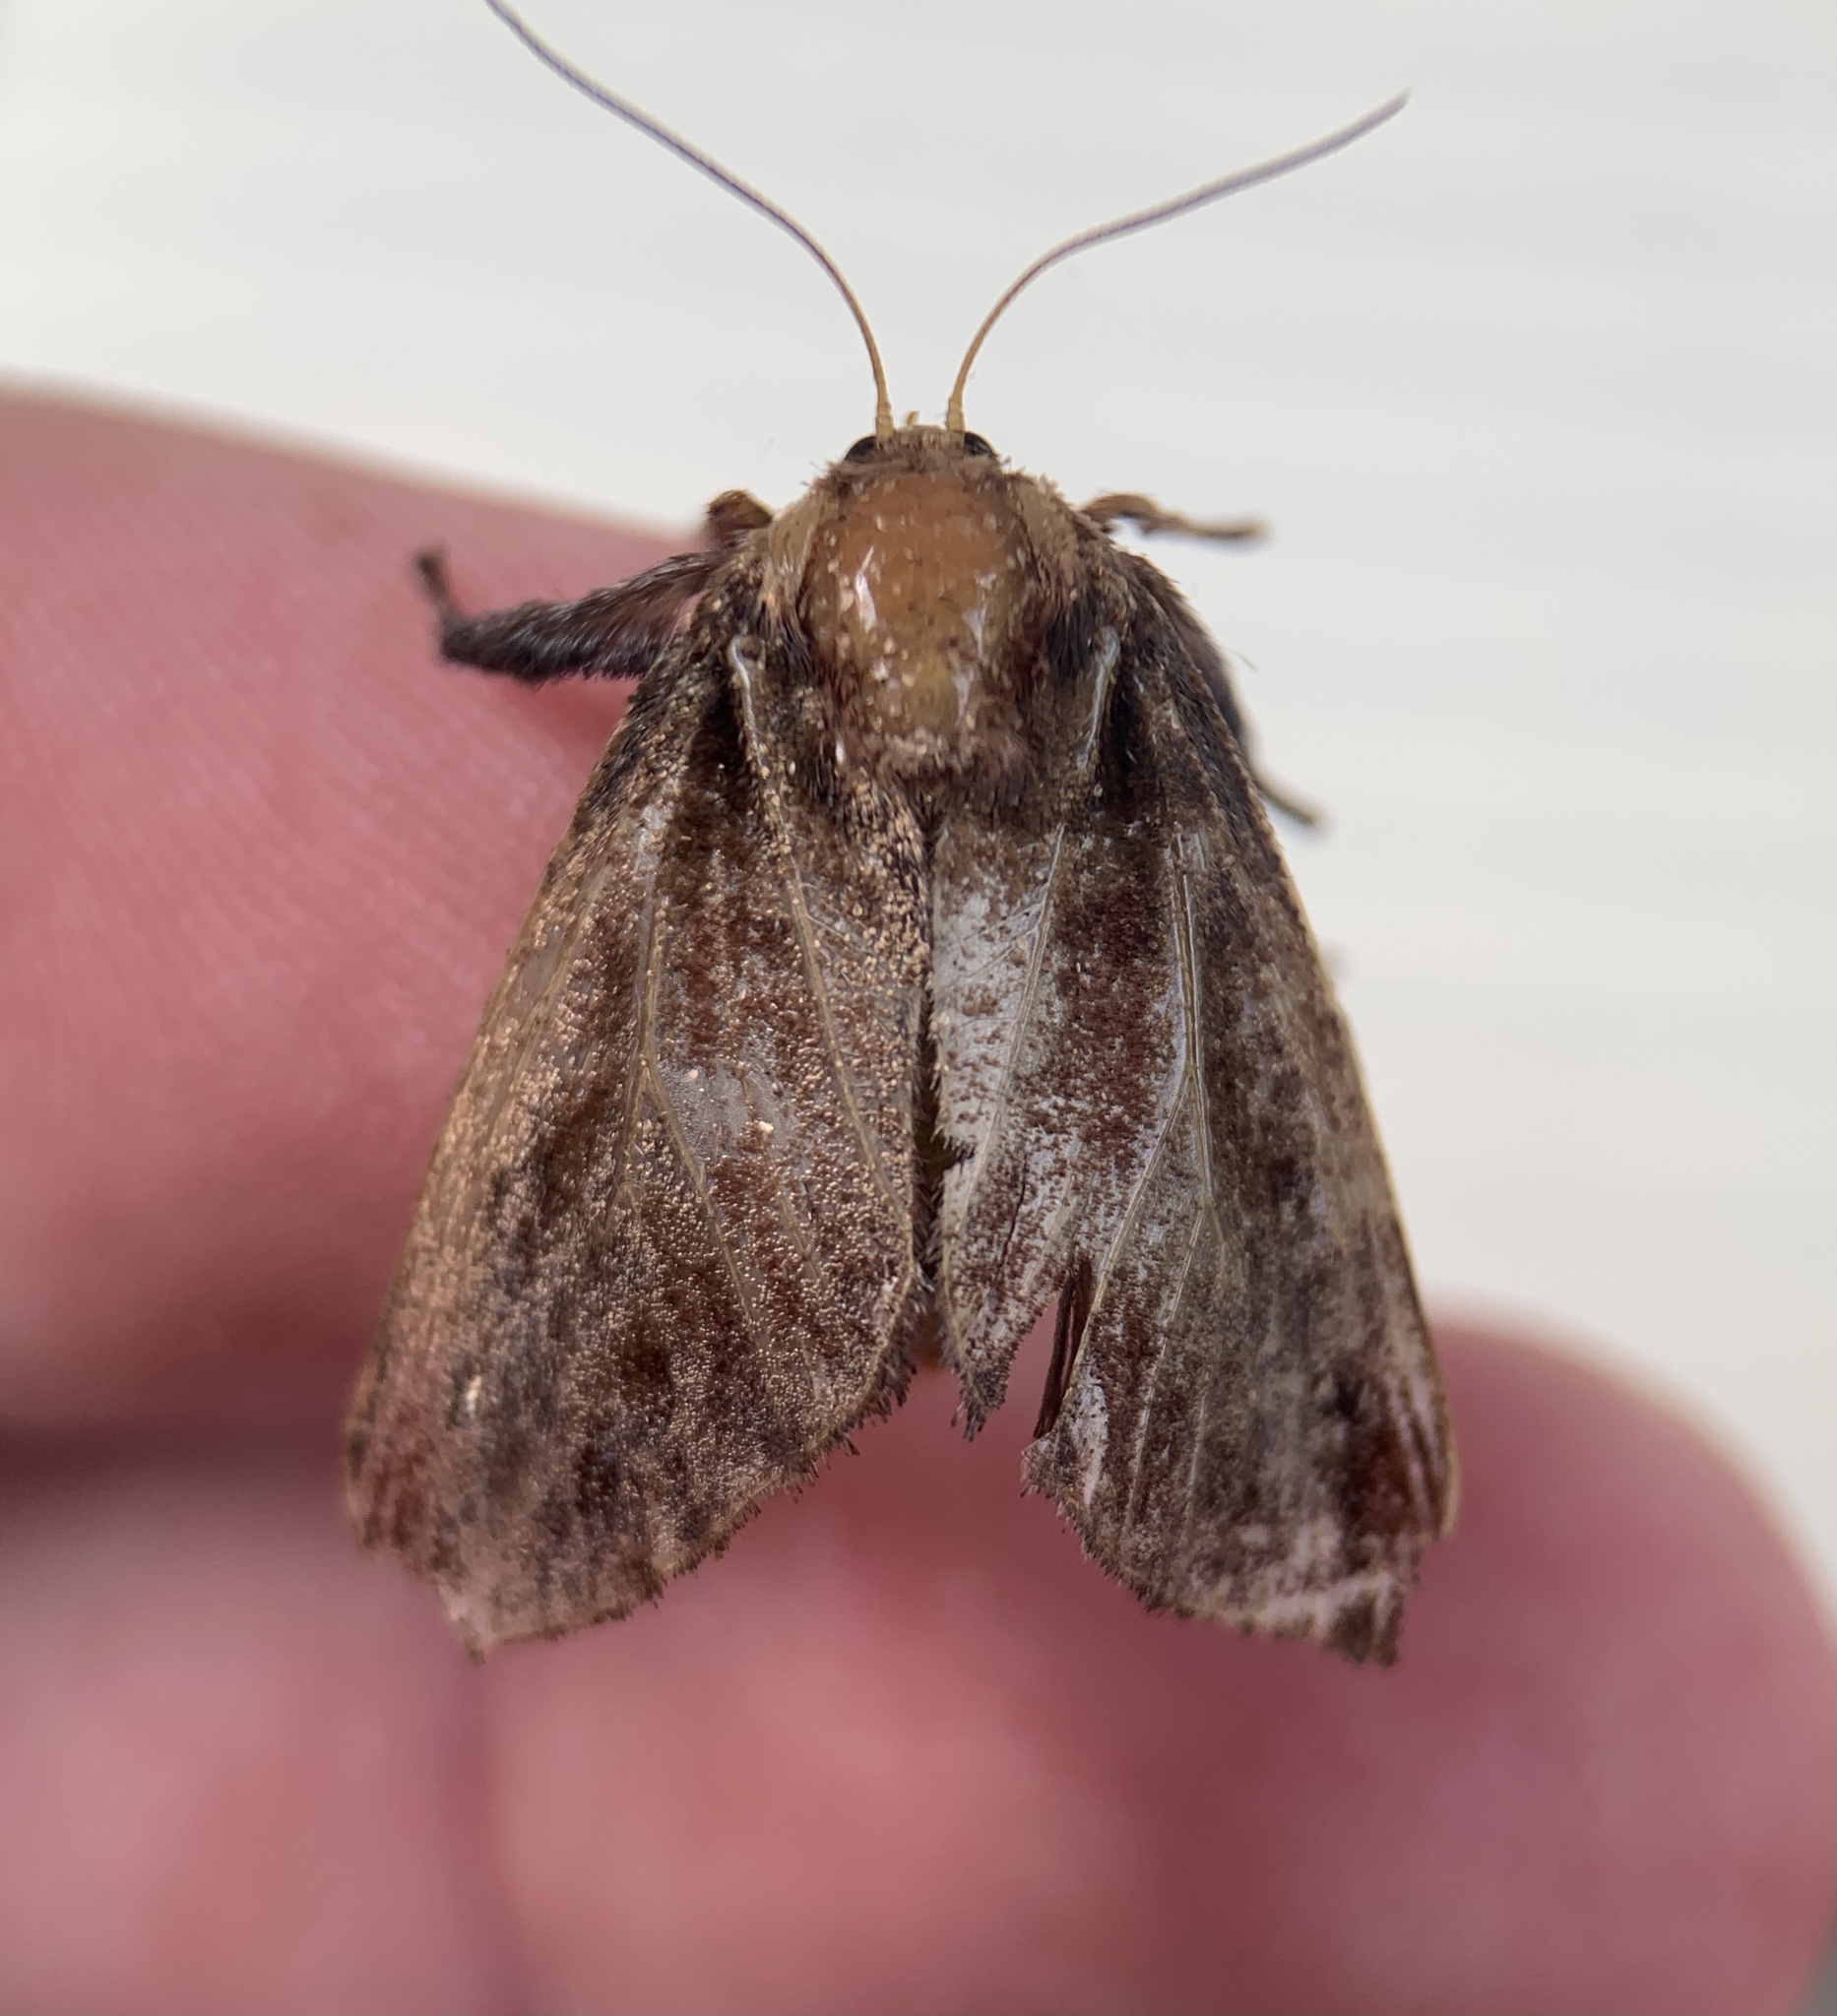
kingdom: Animalia
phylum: Arthropoda
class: Insecta
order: Lepidoptera
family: Limacodidae
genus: Acharia
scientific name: Acharia stimulea
